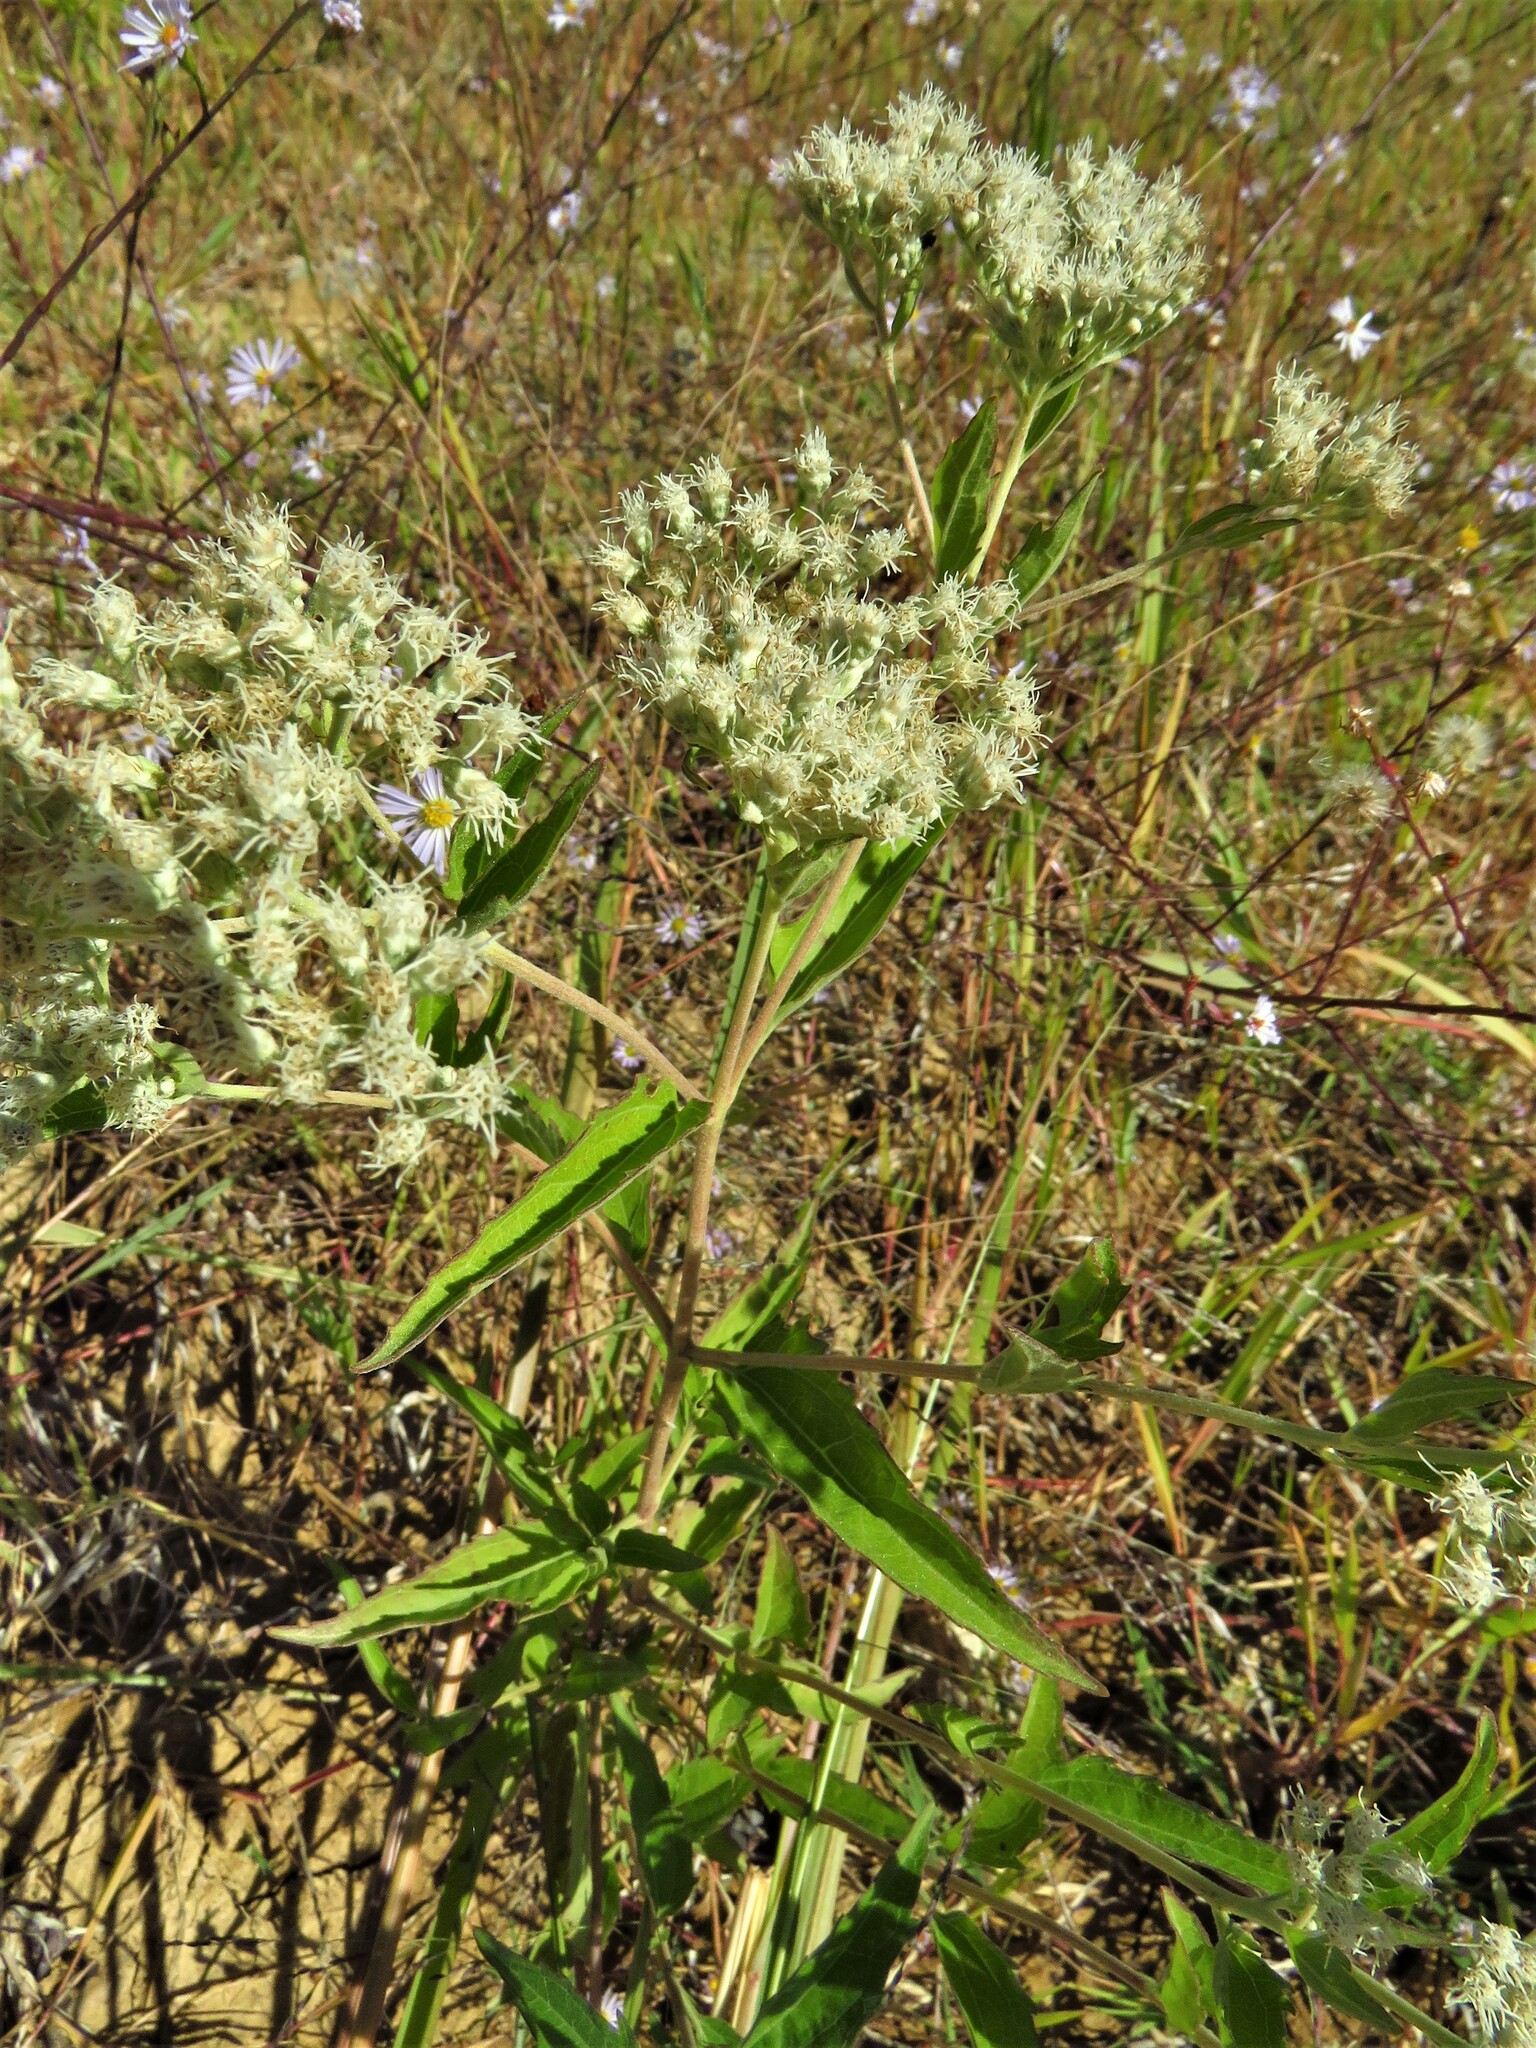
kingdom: Plantae
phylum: Tracheophyta
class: Magnoliopsida
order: Asterales
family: Asteraceae
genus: Eupatorium
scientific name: Eupatorium serotinum
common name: Late boneset
